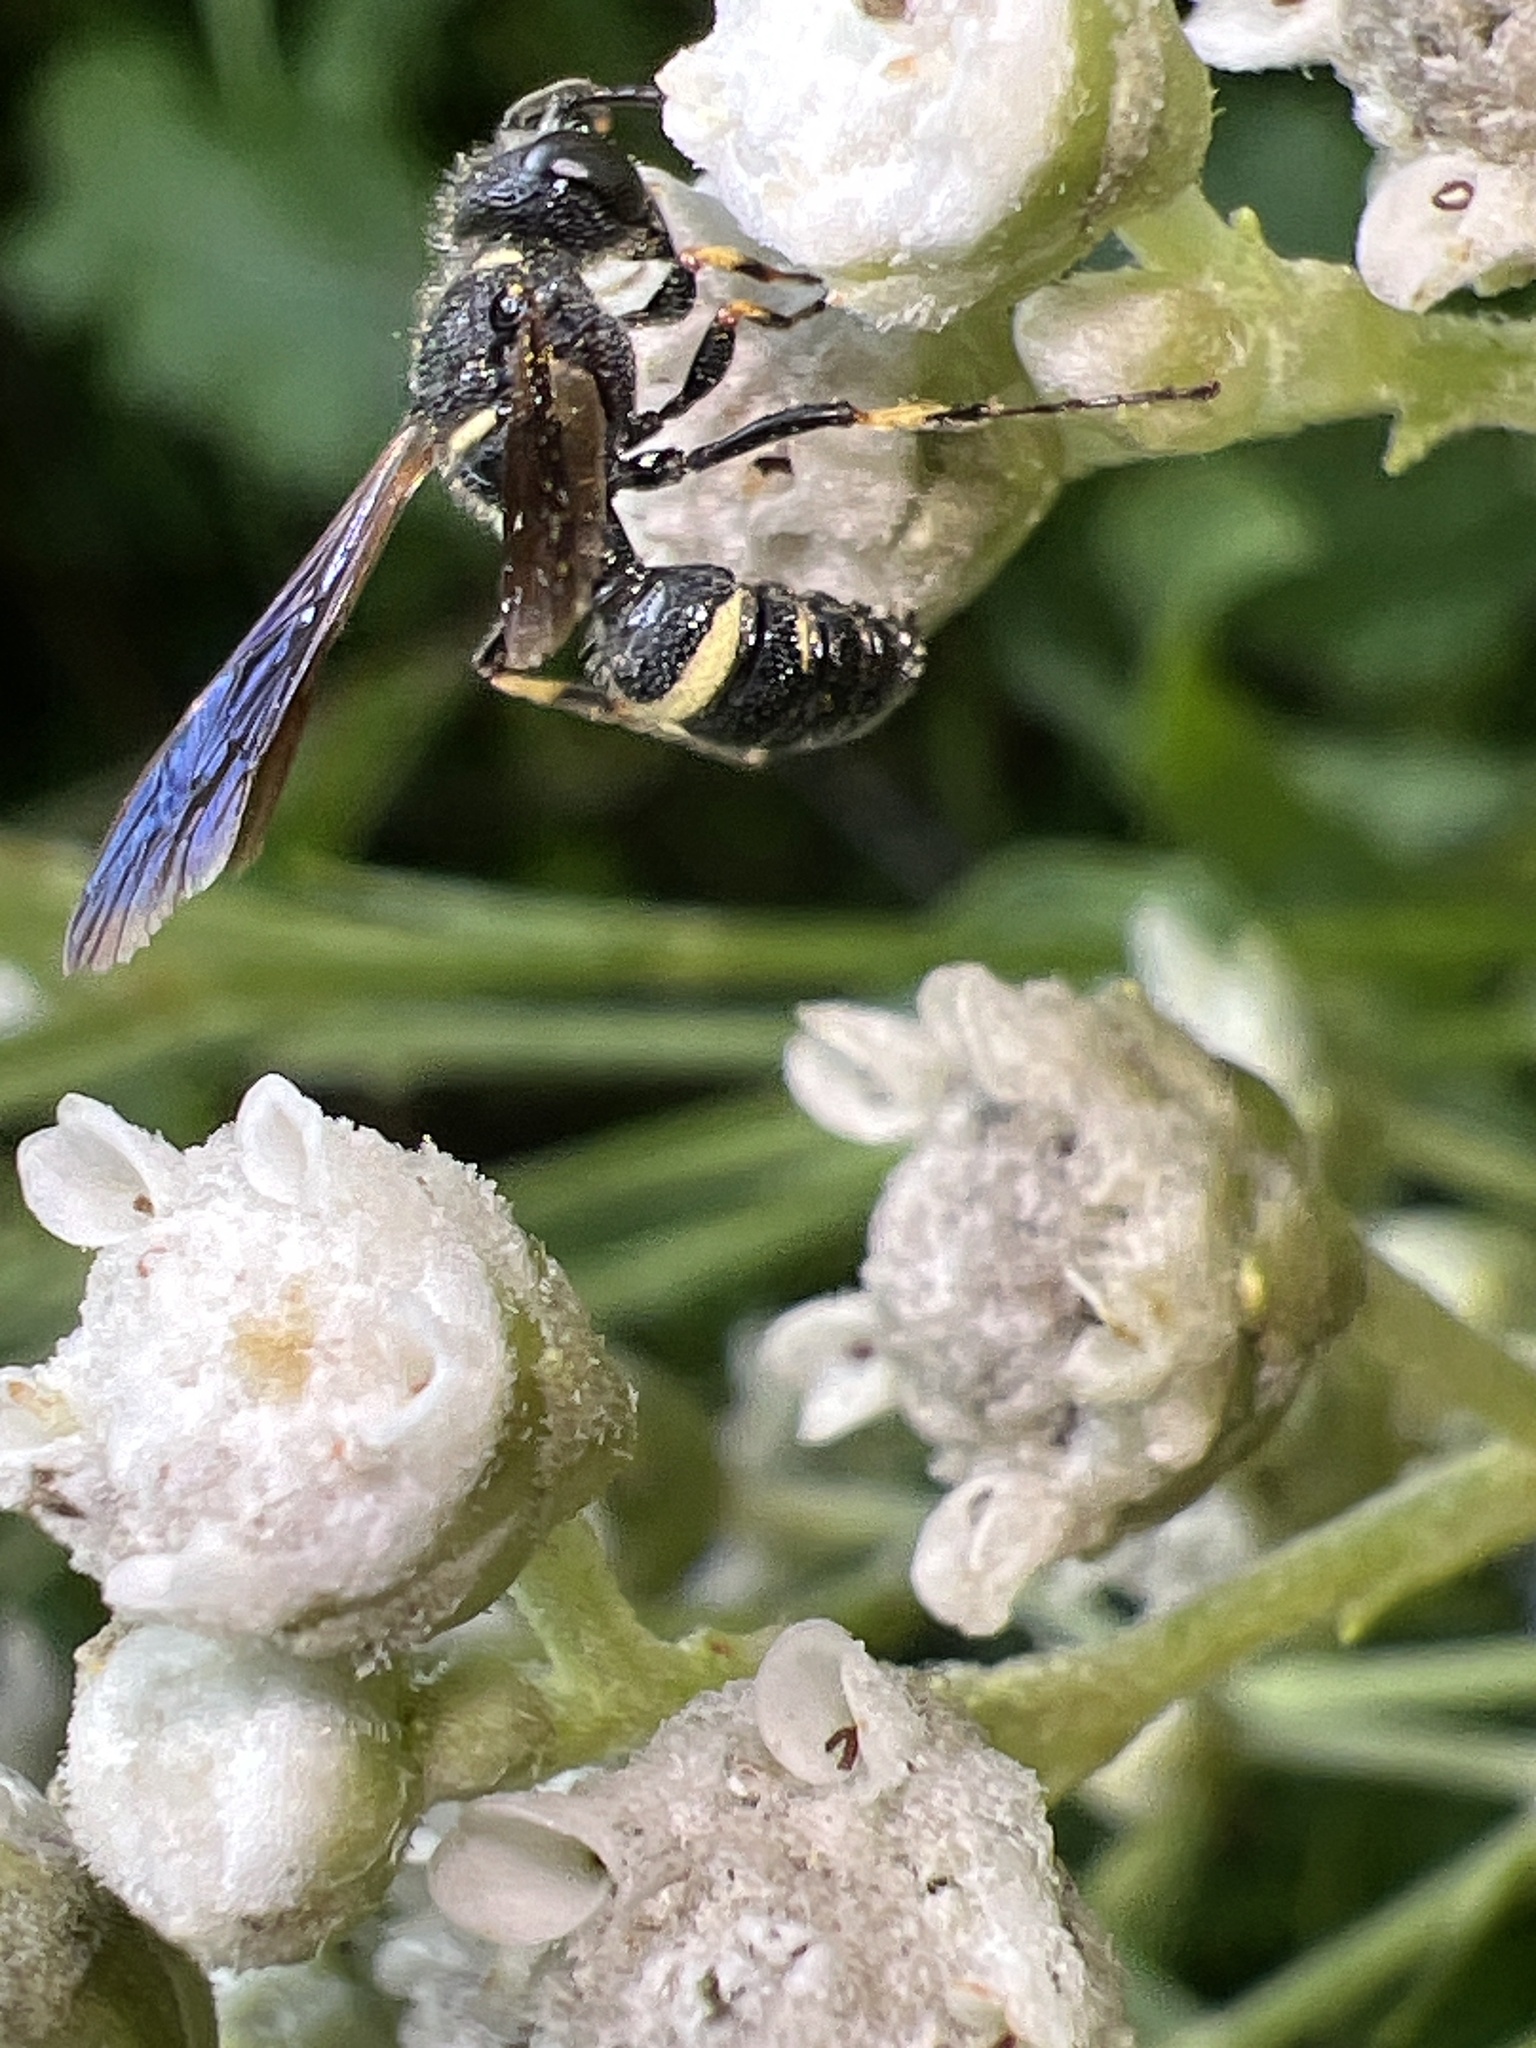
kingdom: Animalia
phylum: Arthropoda
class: Insecta
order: Hymenoptera
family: Crabronidae
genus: Cerceris
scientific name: Cerceris fumipennis
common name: Smokey-winged beetle bandit wasp
